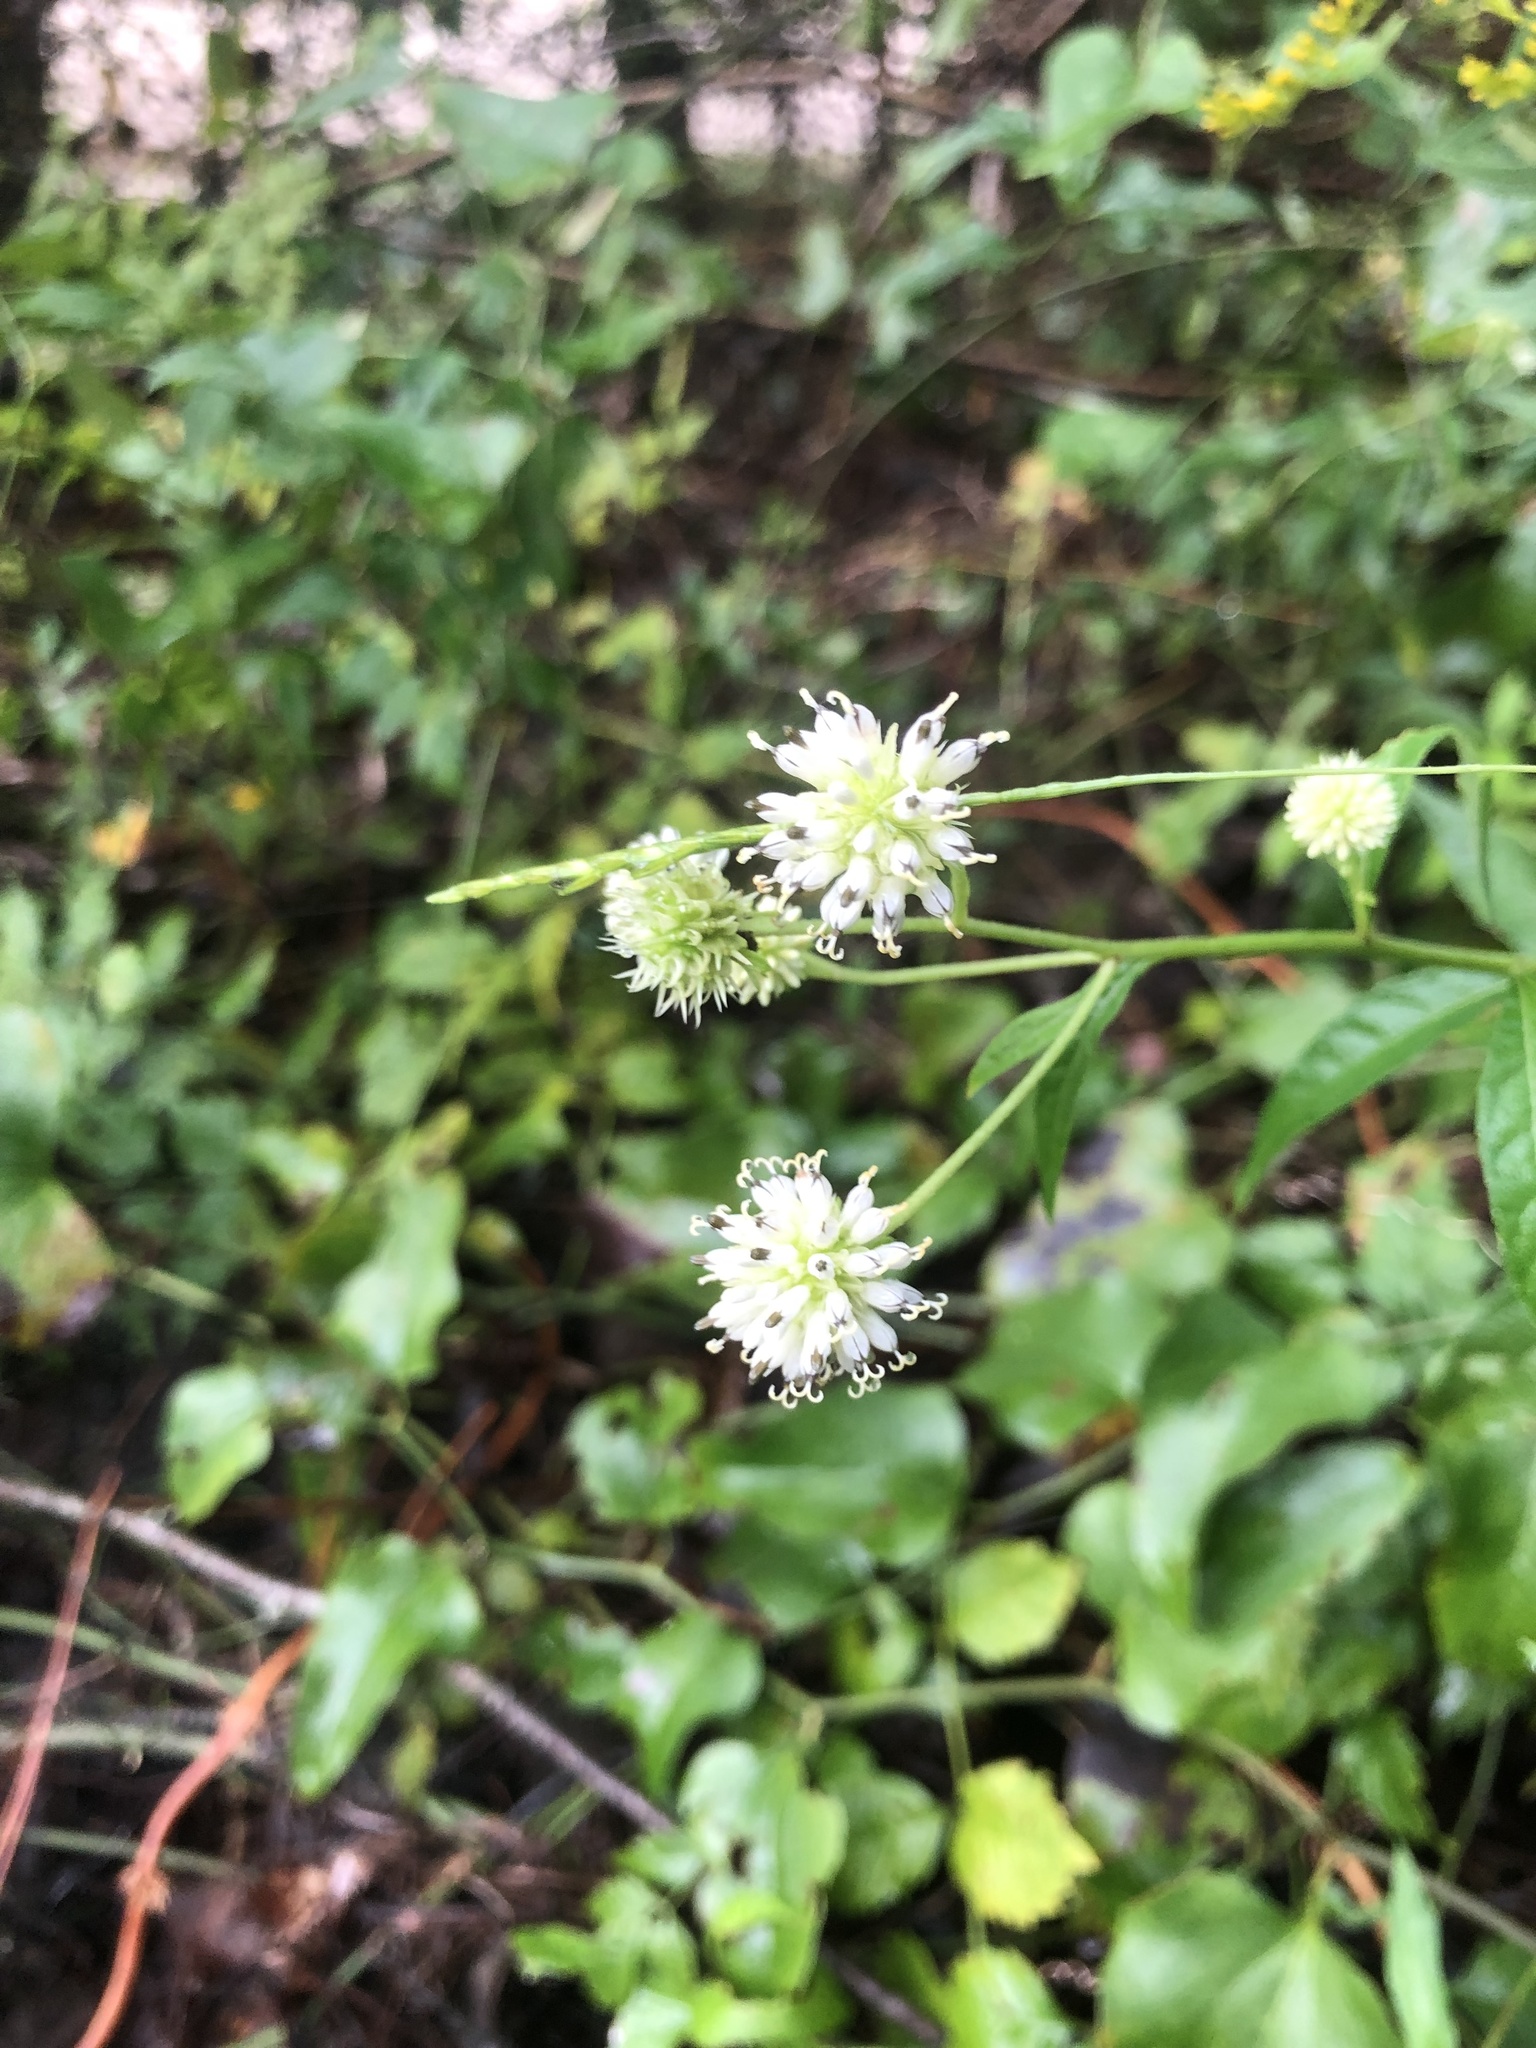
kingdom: Plantae
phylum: Tracheophyta
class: Magnoliopsida
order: Asterales
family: Asteraceae
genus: Verbesina
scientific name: Verbesina walteri
